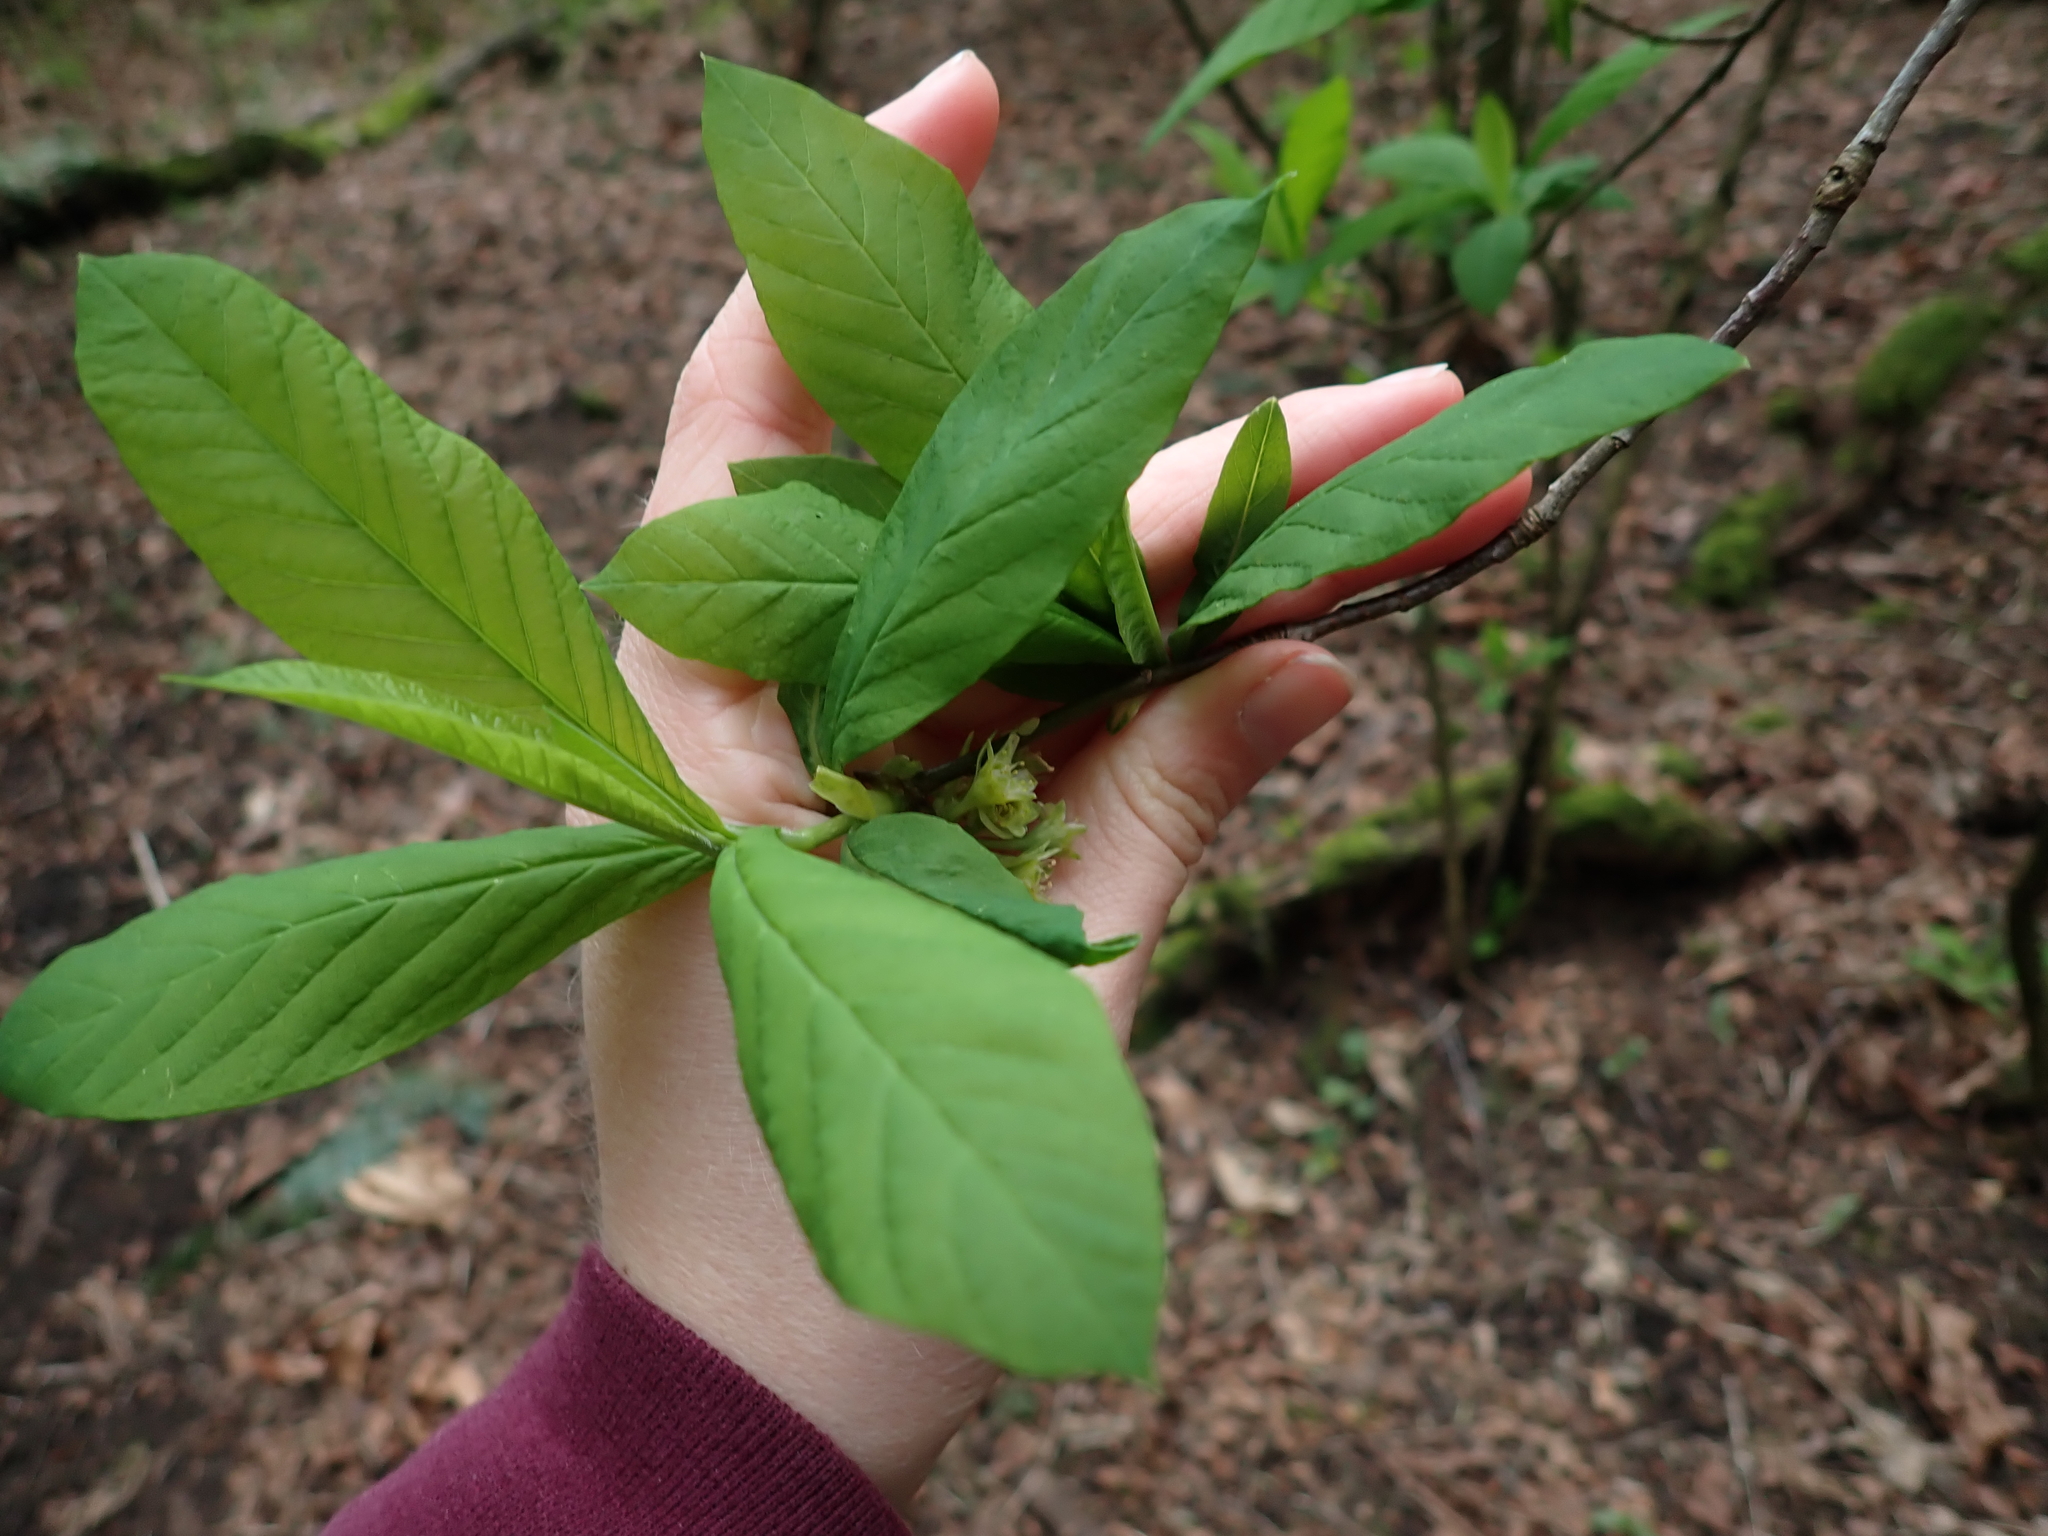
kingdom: Plantae
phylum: Tracheophyta
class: Magnoliopsida
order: Rosales
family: Rosaceae
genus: Oemleria
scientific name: Oemleria cerasiformis
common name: Osoberry
